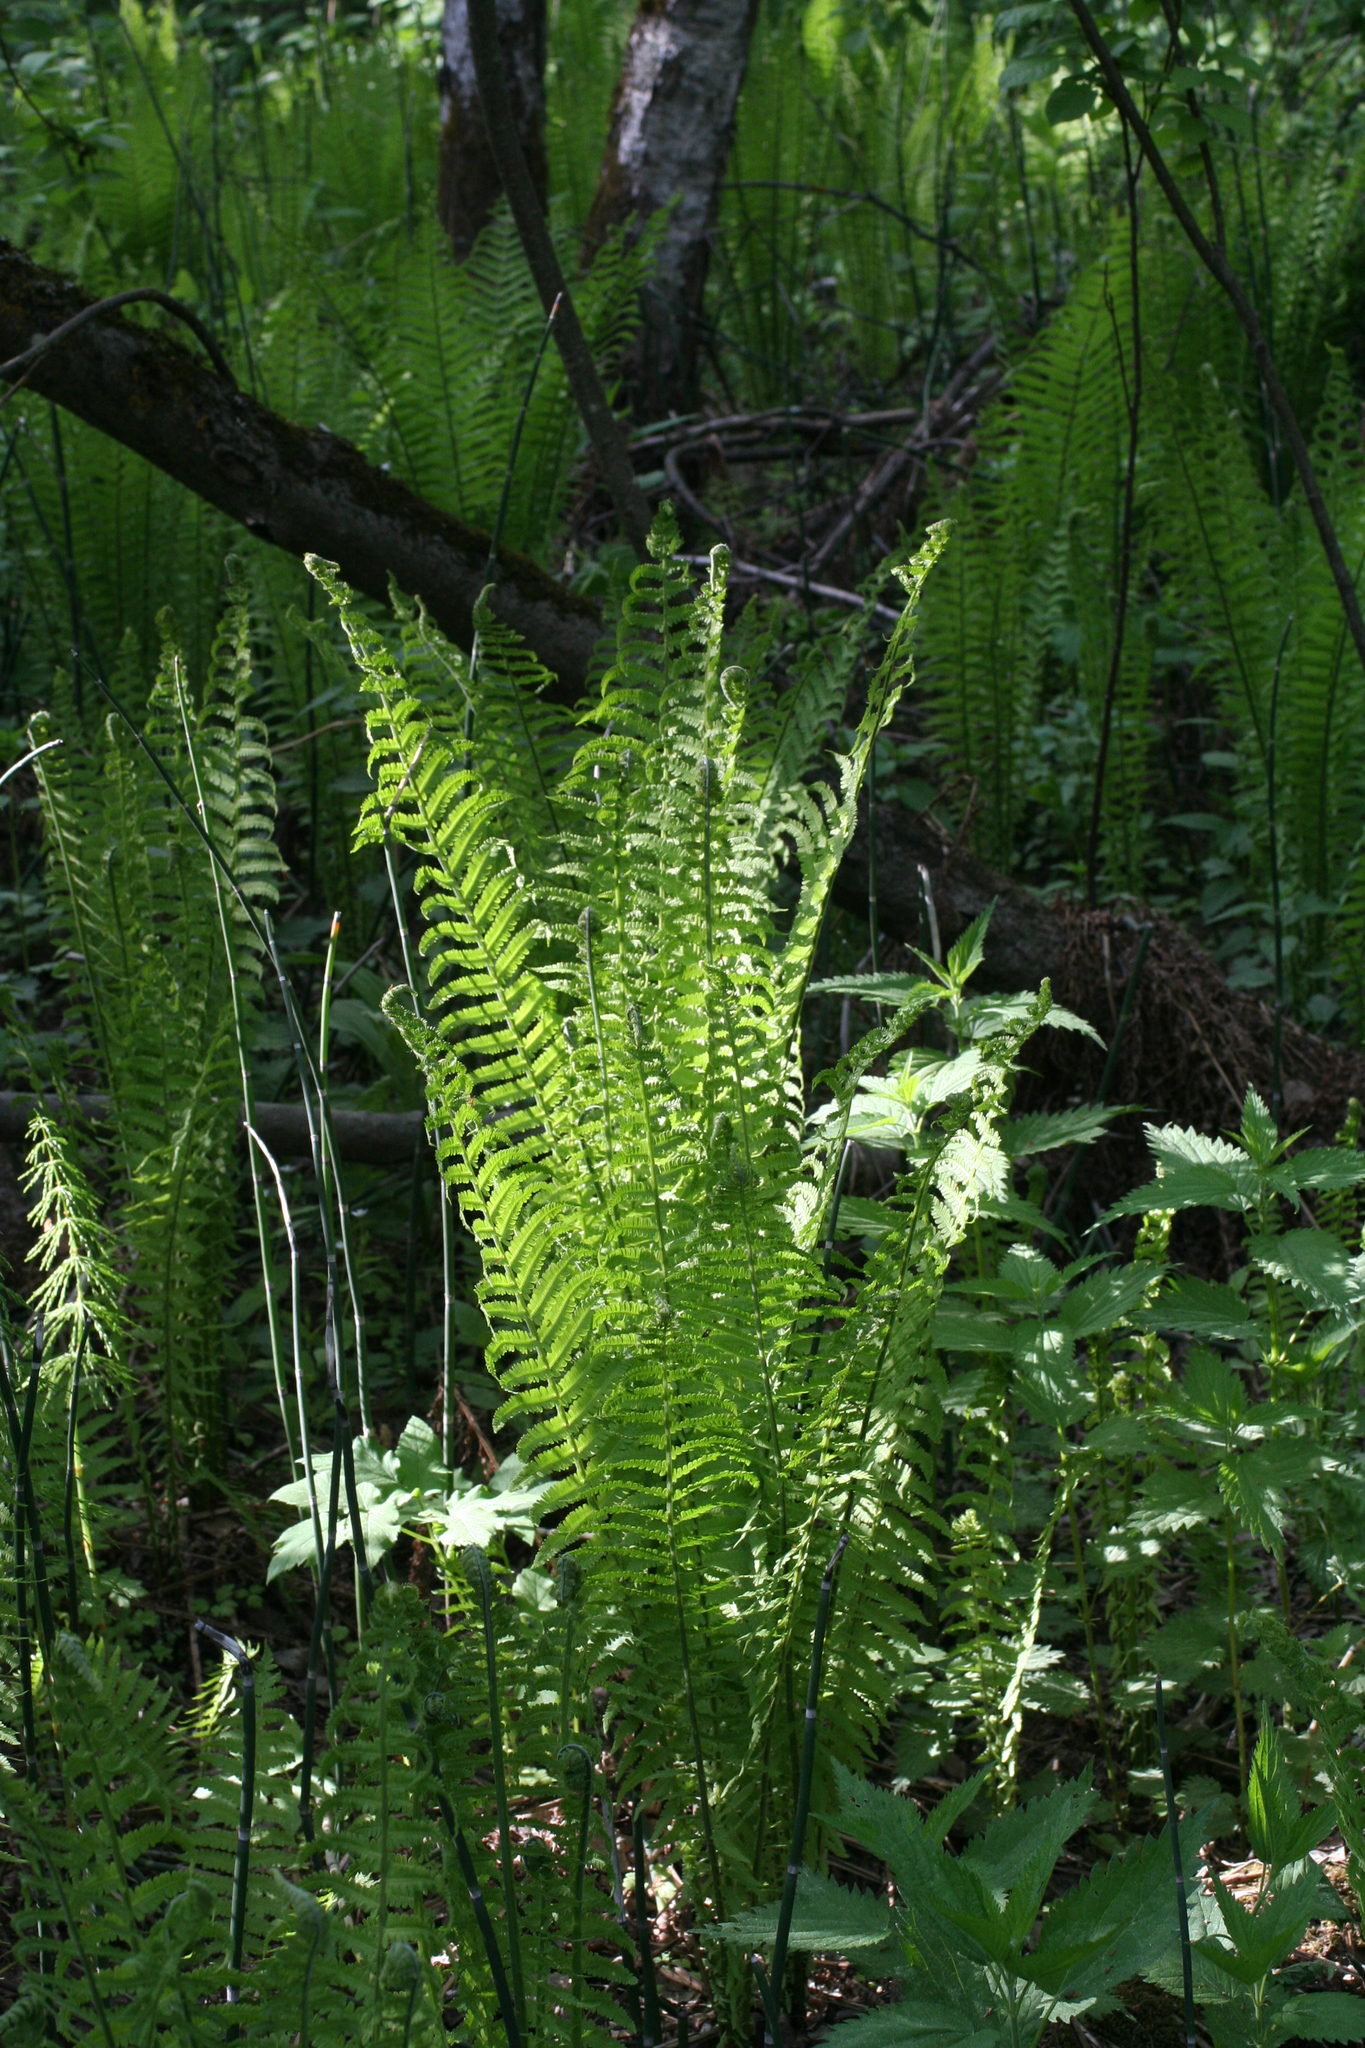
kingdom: Plantae
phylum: Tracheophyta
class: Polypodiopsida
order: Polypodiales
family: Onocleaceae
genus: Matteuccia
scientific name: Matteuccia struthiopteris
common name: Ostrich fern
